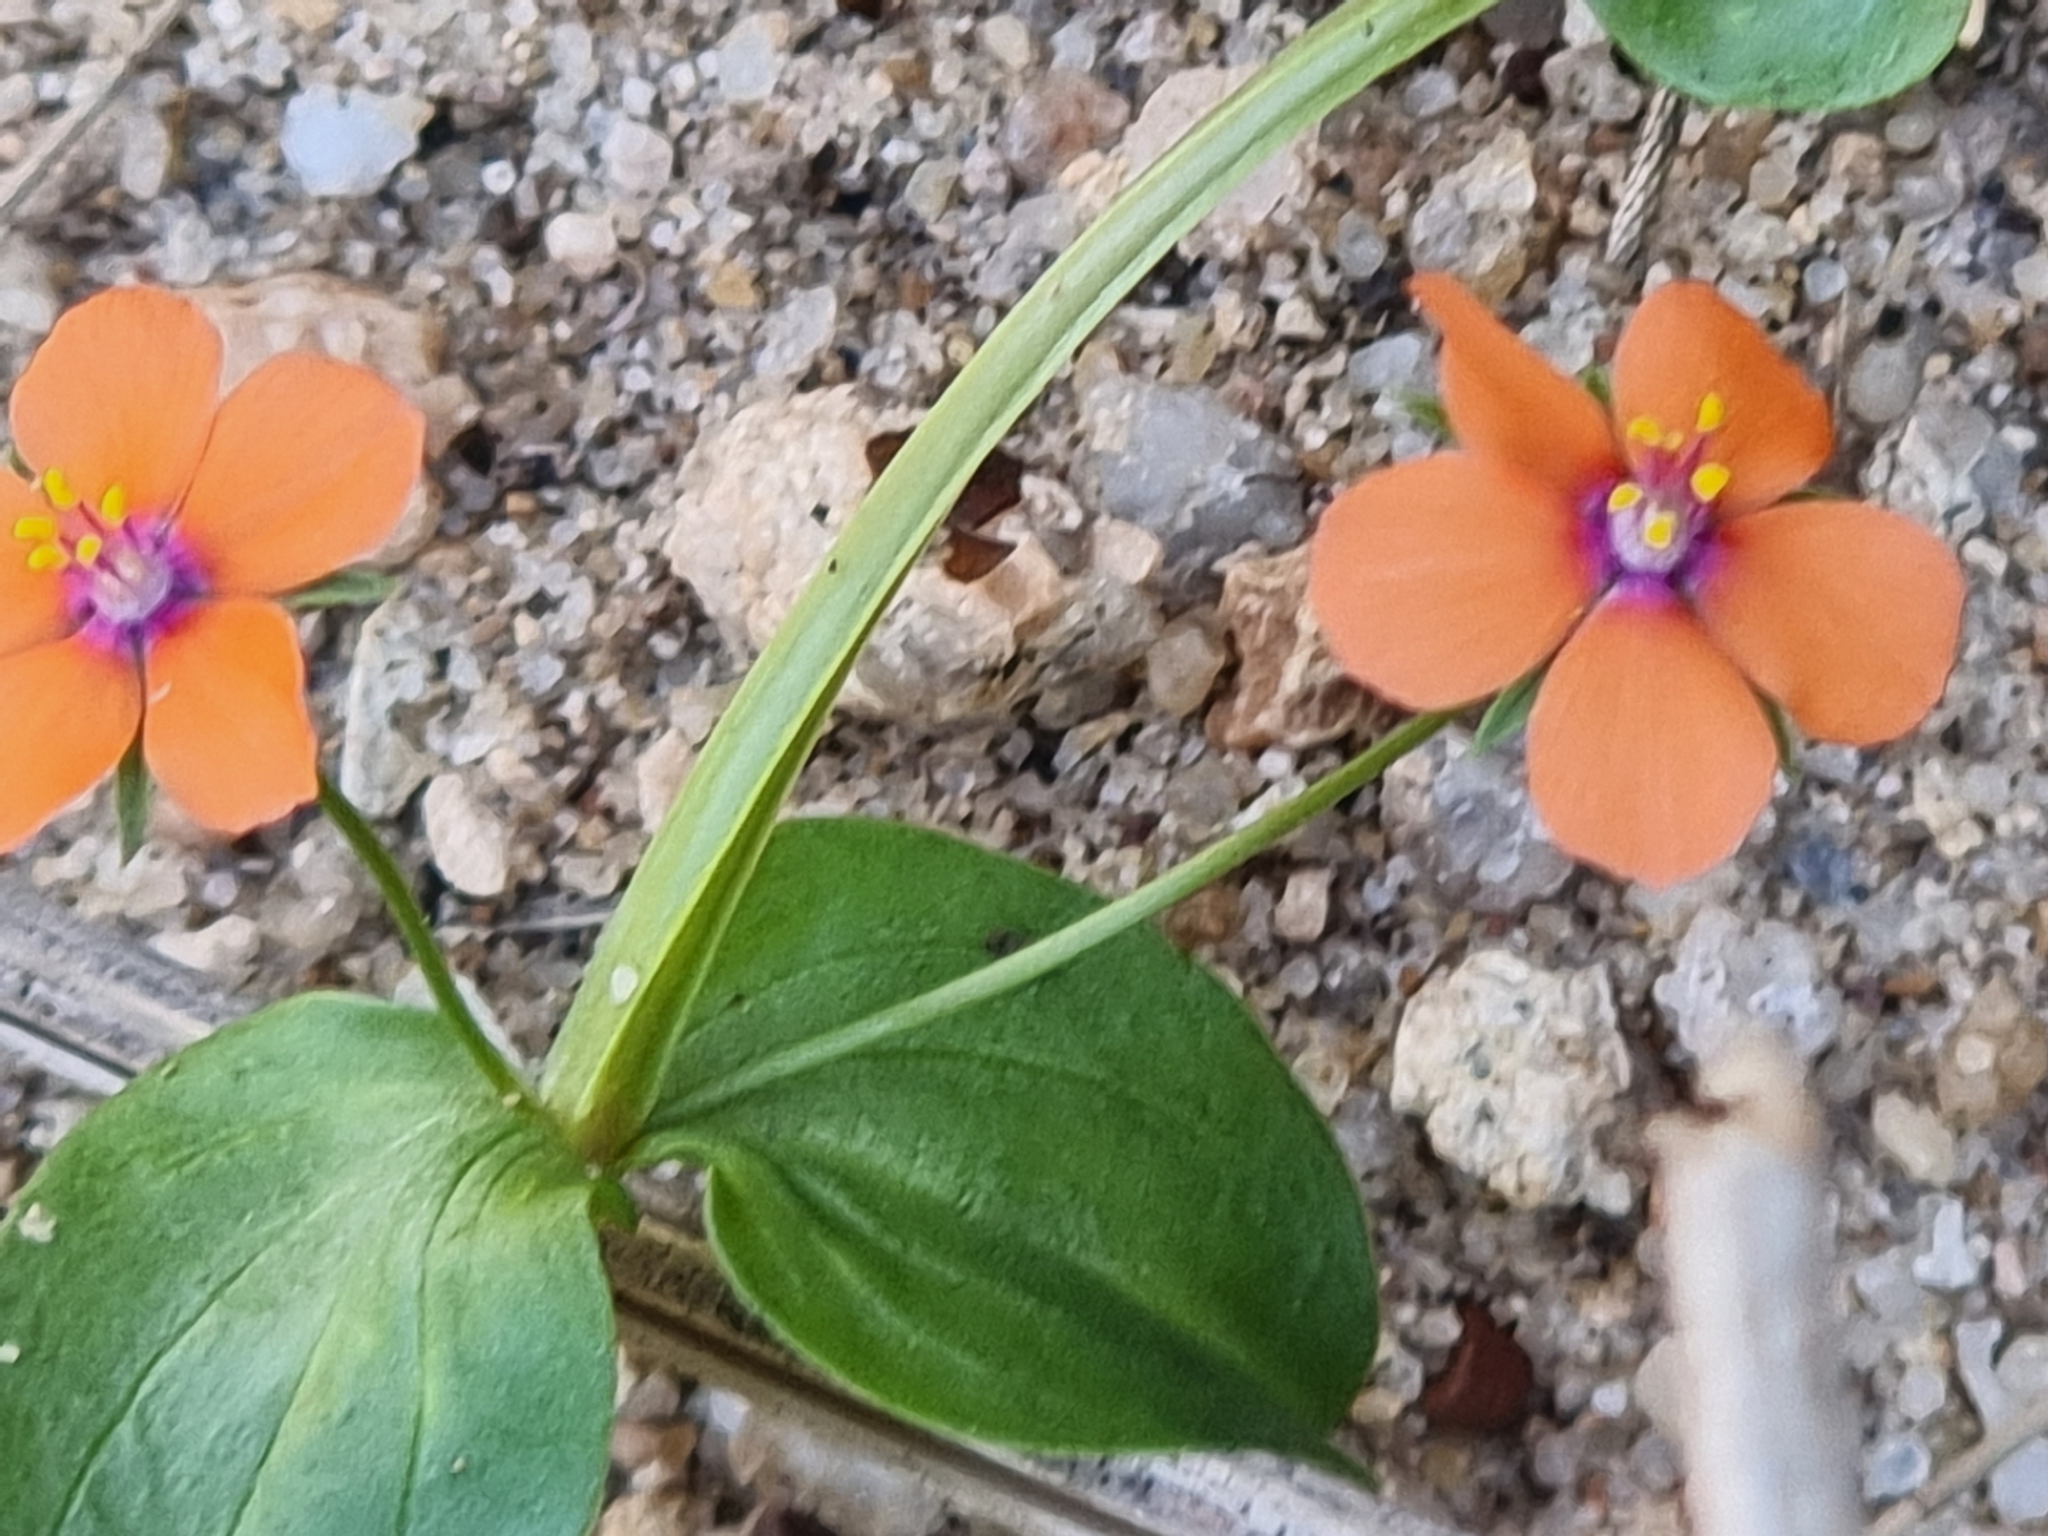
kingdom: Plantae
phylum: Tracheophyta
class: Magnoliopsida
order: Ericales
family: Primulaceae
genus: Lysimachia
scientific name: Lysimachia arvensis
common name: Scarlet pimpernel
